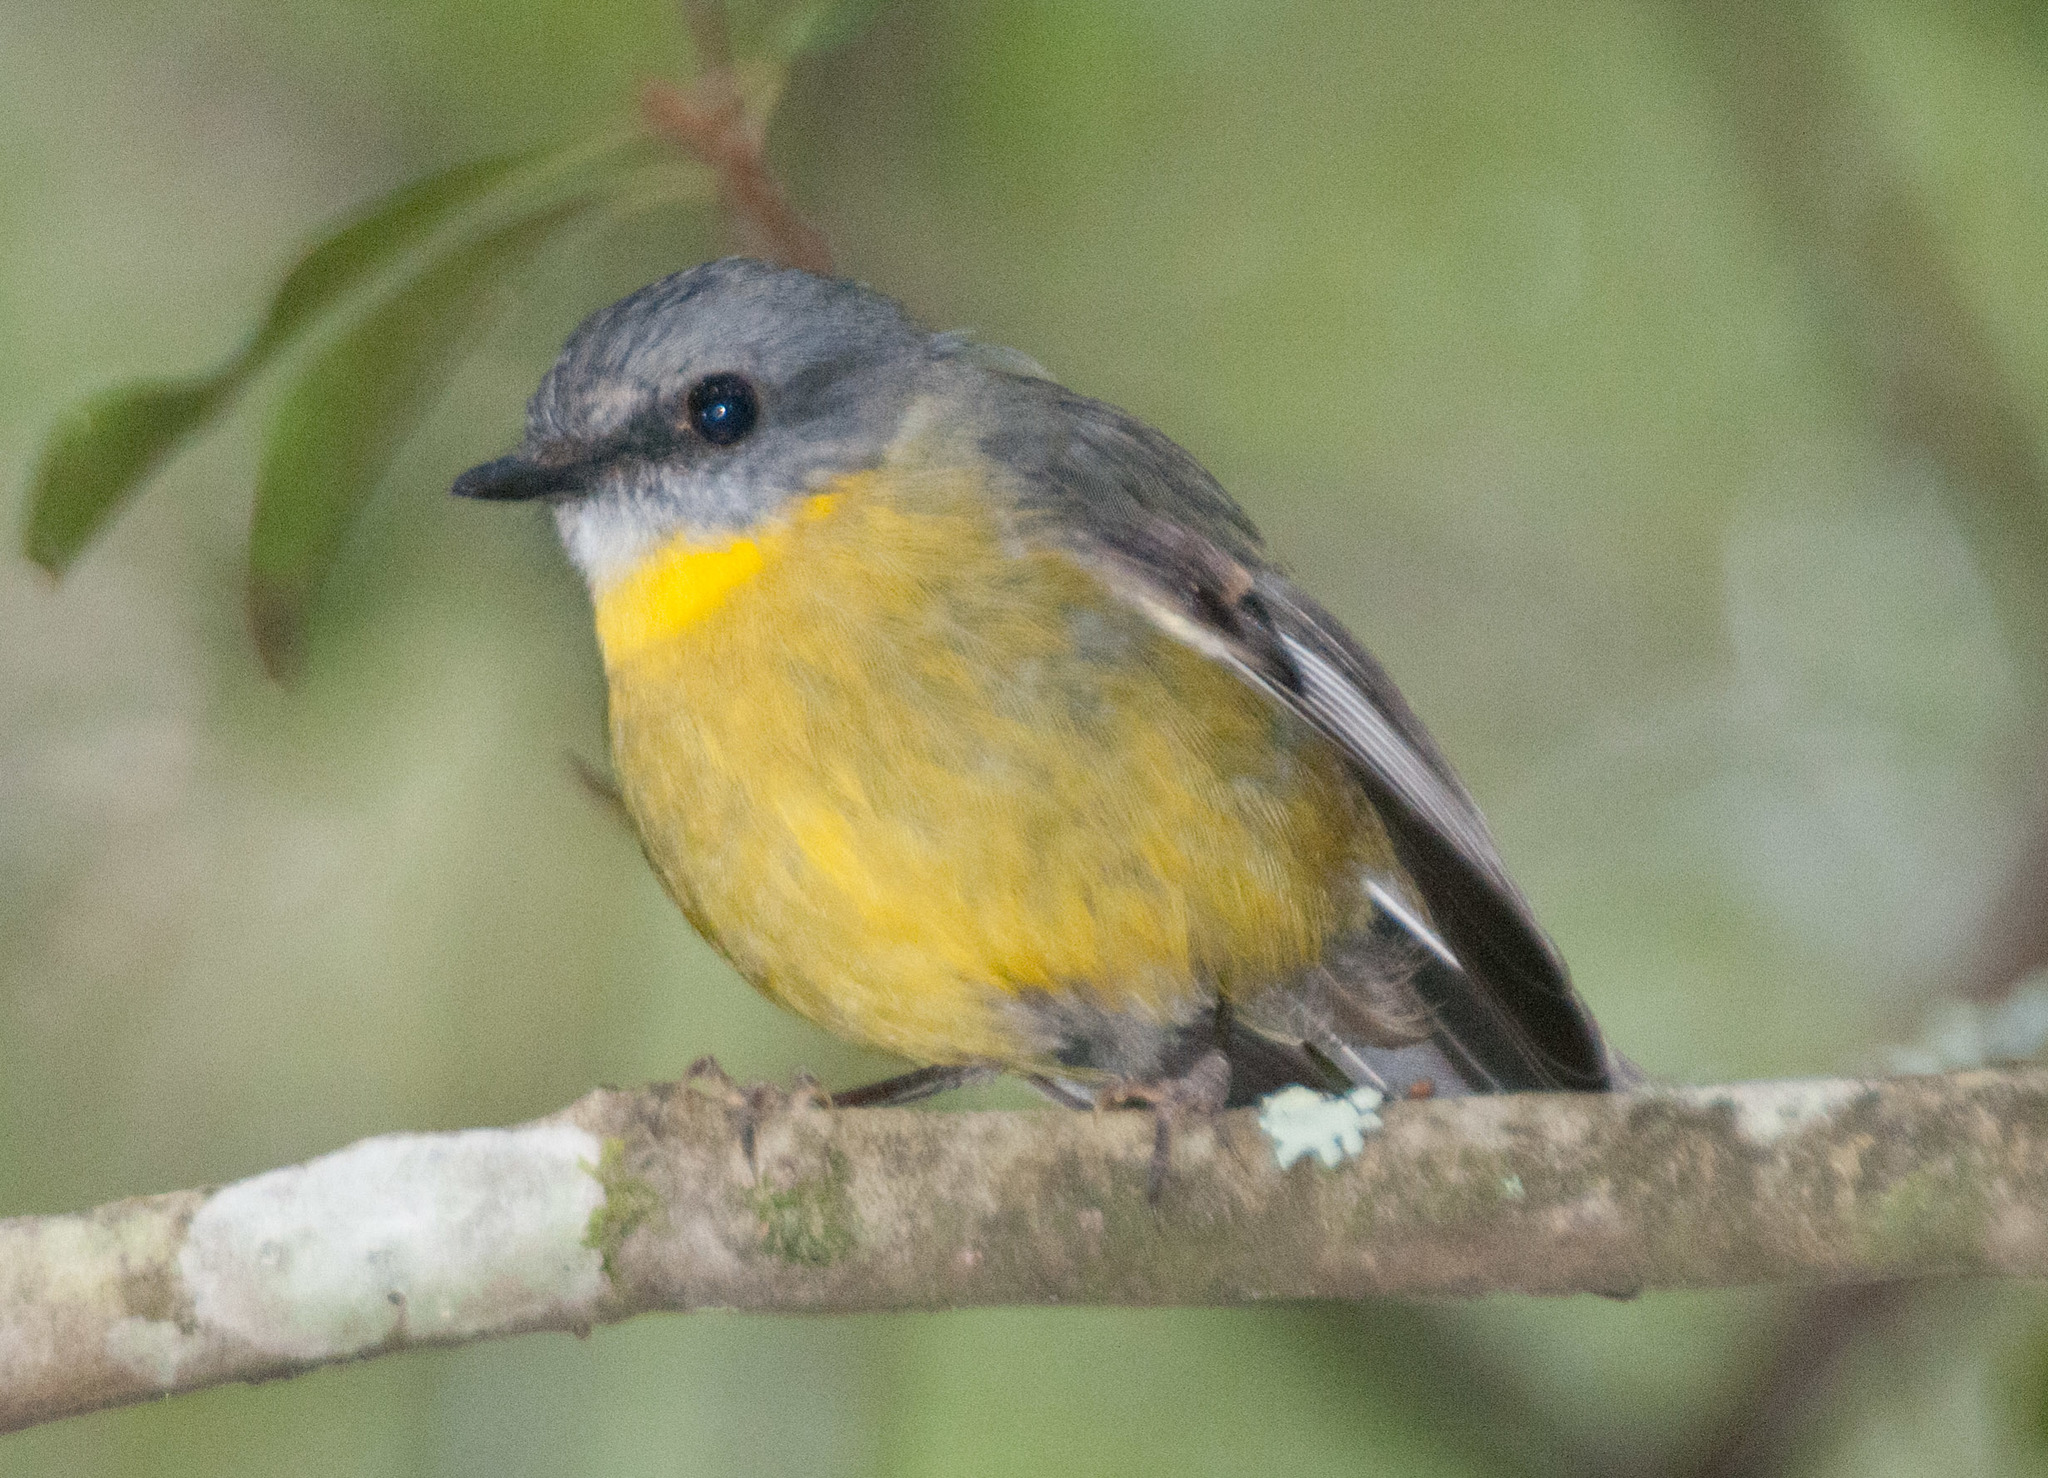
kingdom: Animalia
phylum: Chordata
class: Aves
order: Passeriformes
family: Petroicidae
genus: Eopsaltria
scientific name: Eopsaltria australis
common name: Eastern yellow robin
